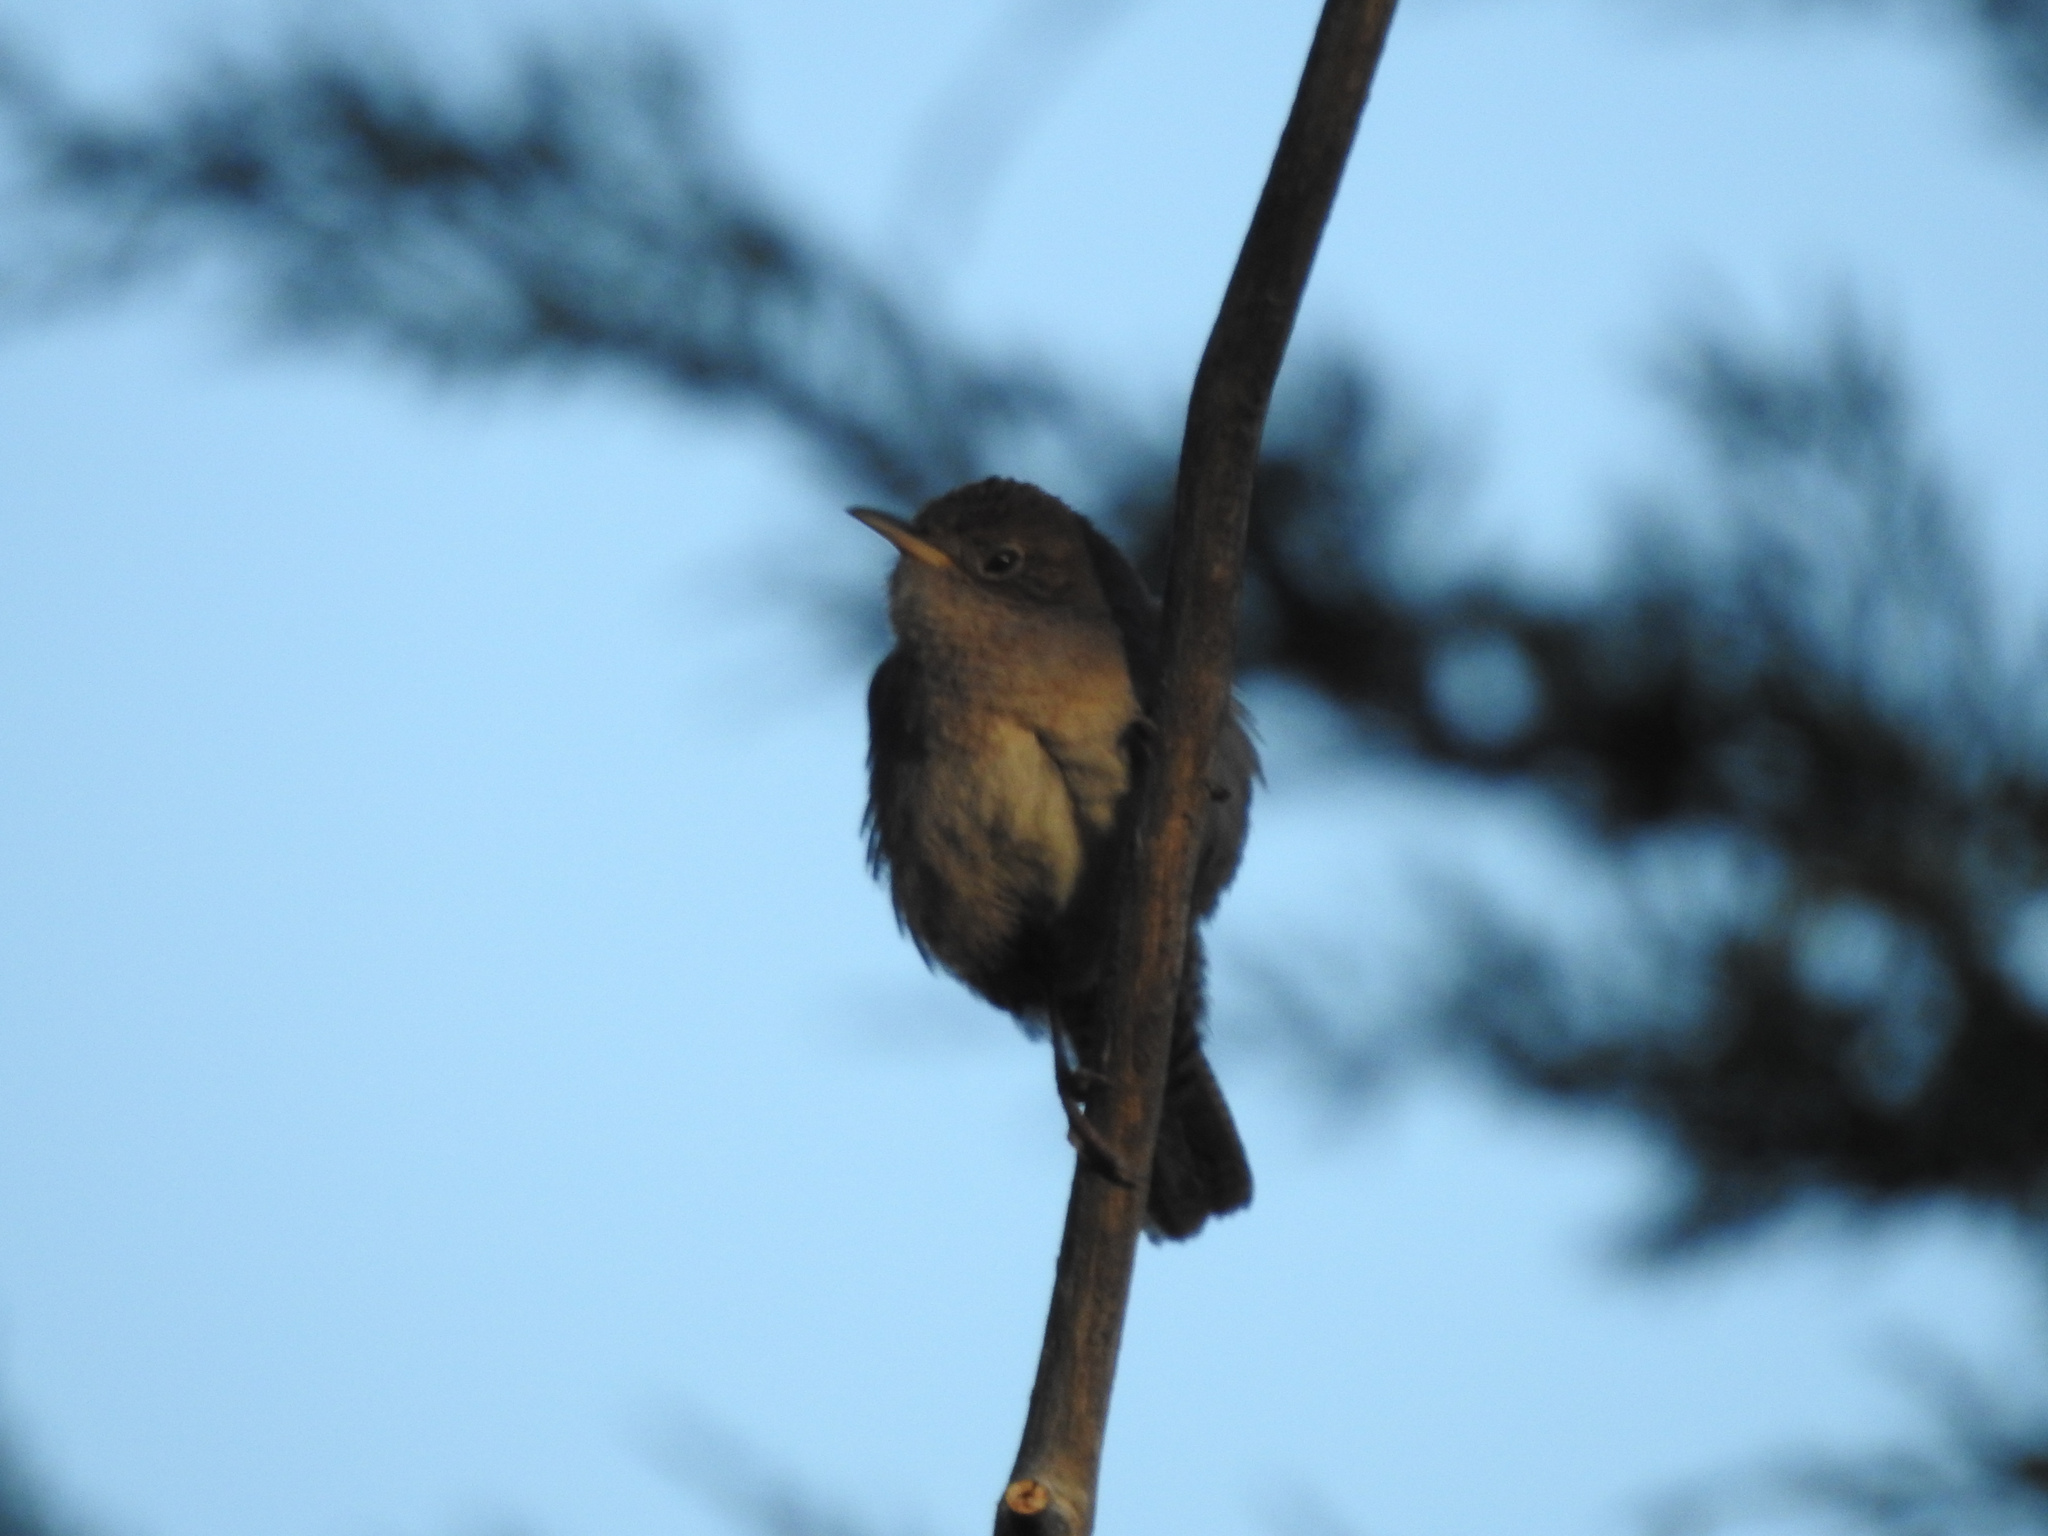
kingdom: Animalia
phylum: Chordata
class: Aves
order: Passeriformes
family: Troglodytidae
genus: Troglodytes
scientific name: Troglodytes aedon
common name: House wren
